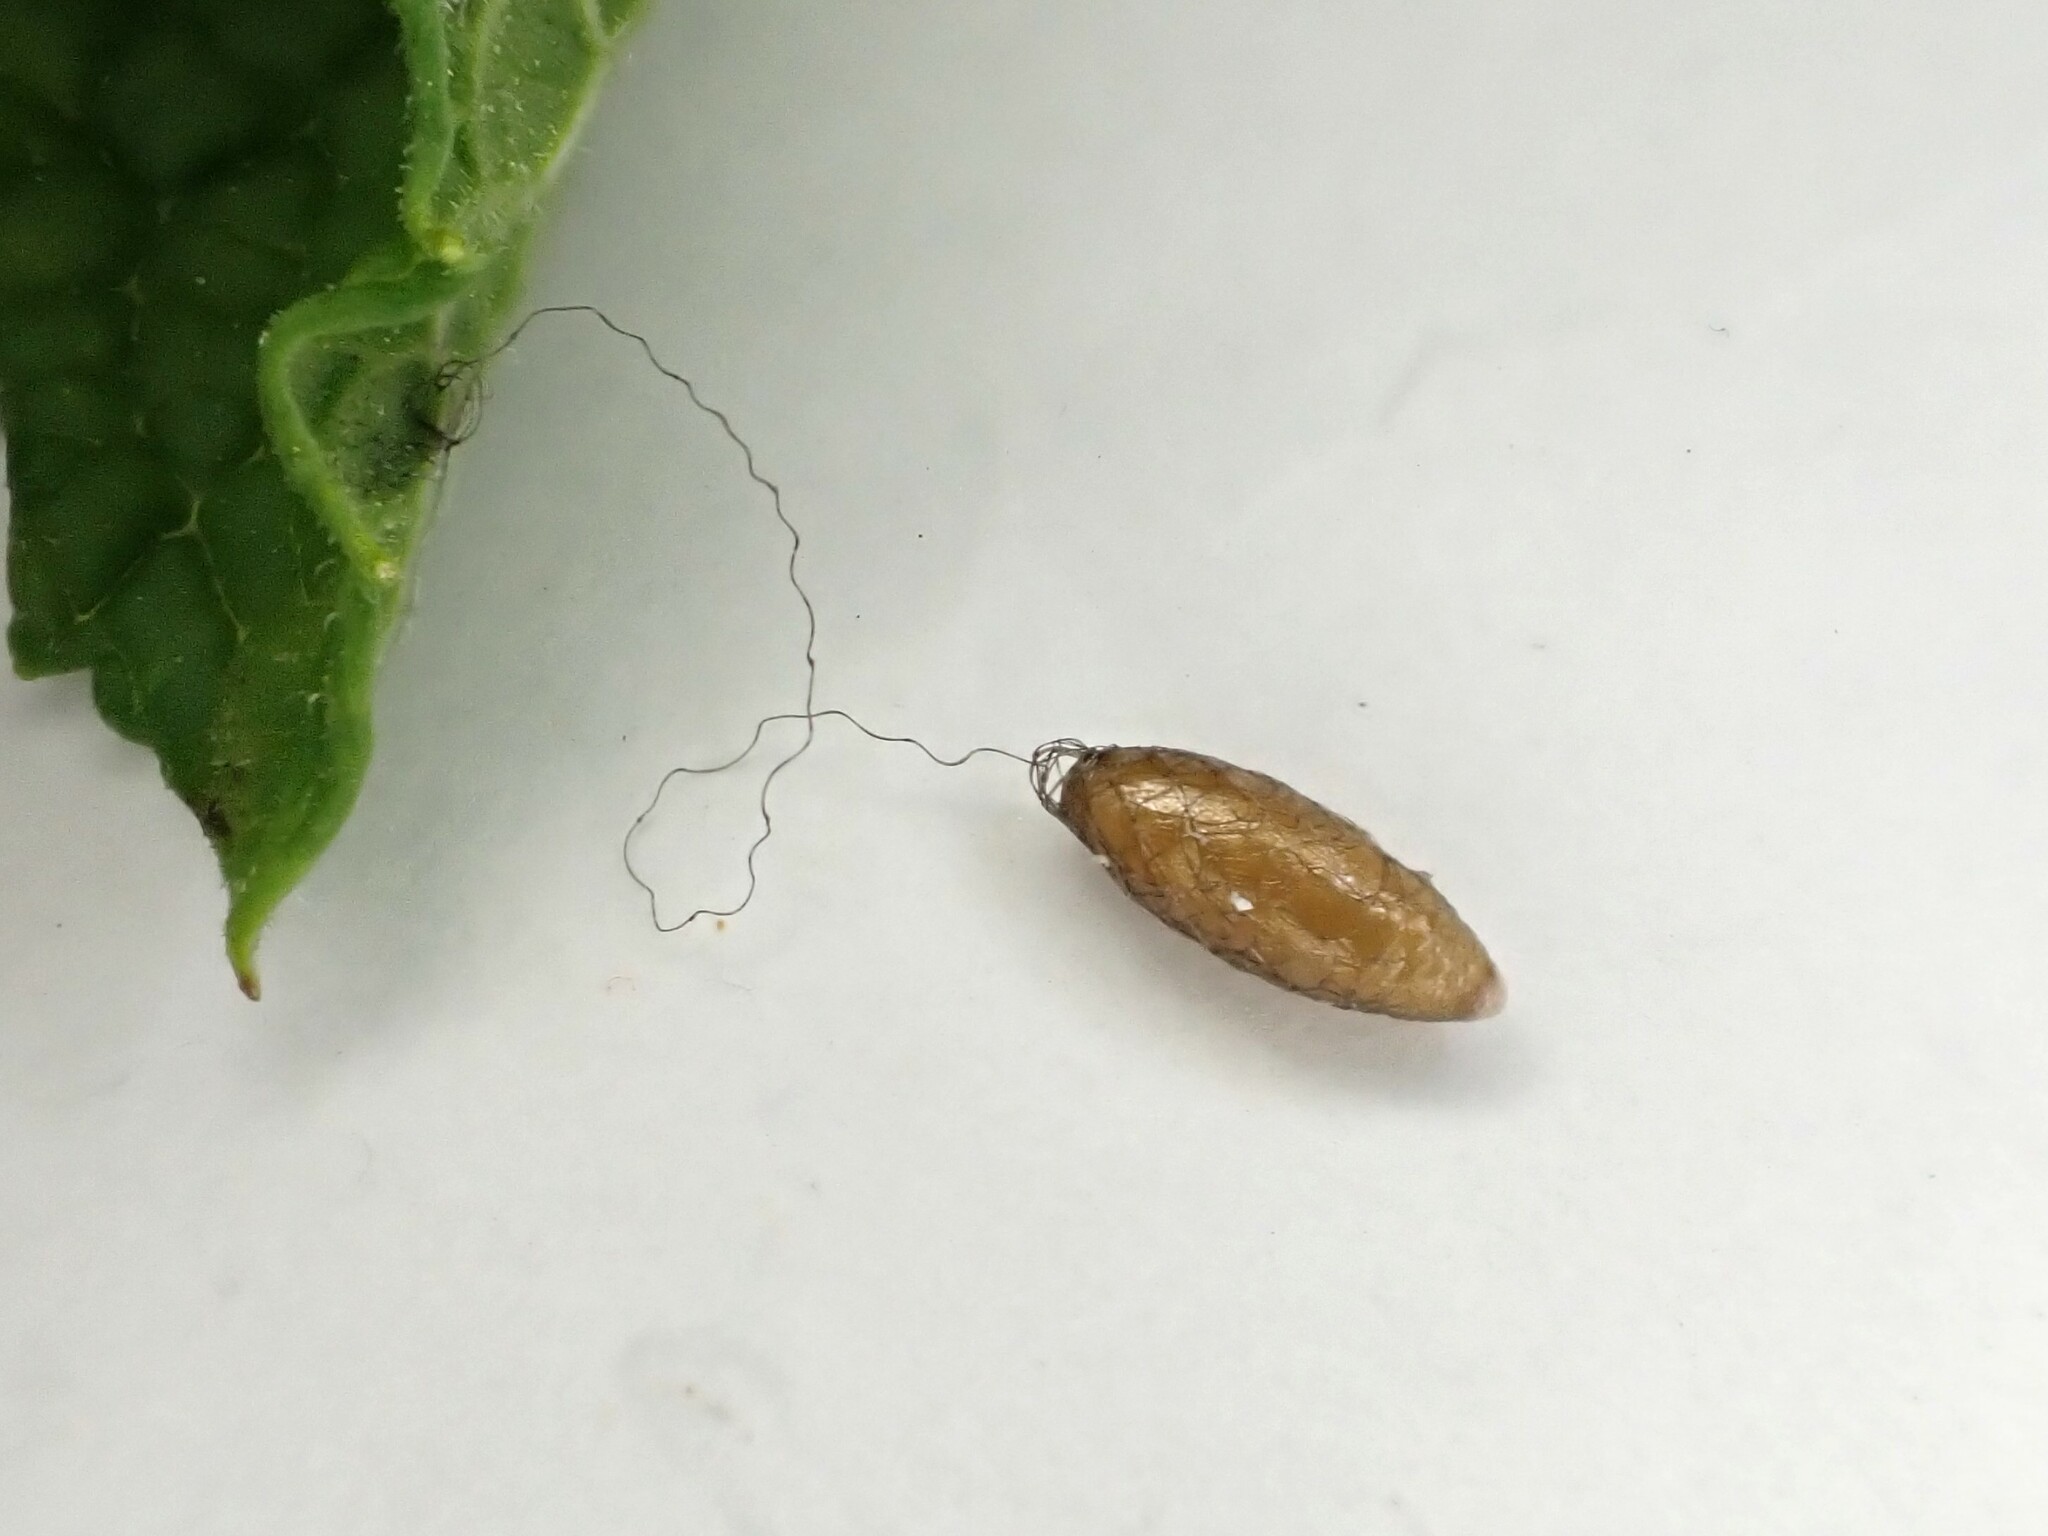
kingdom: Animalia
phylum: Arthropoda
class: Insecta
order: Hymenoptera
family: Braconidae
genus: Meteorus
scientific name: Meteorus pulchricornis
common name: Braconid wasp
